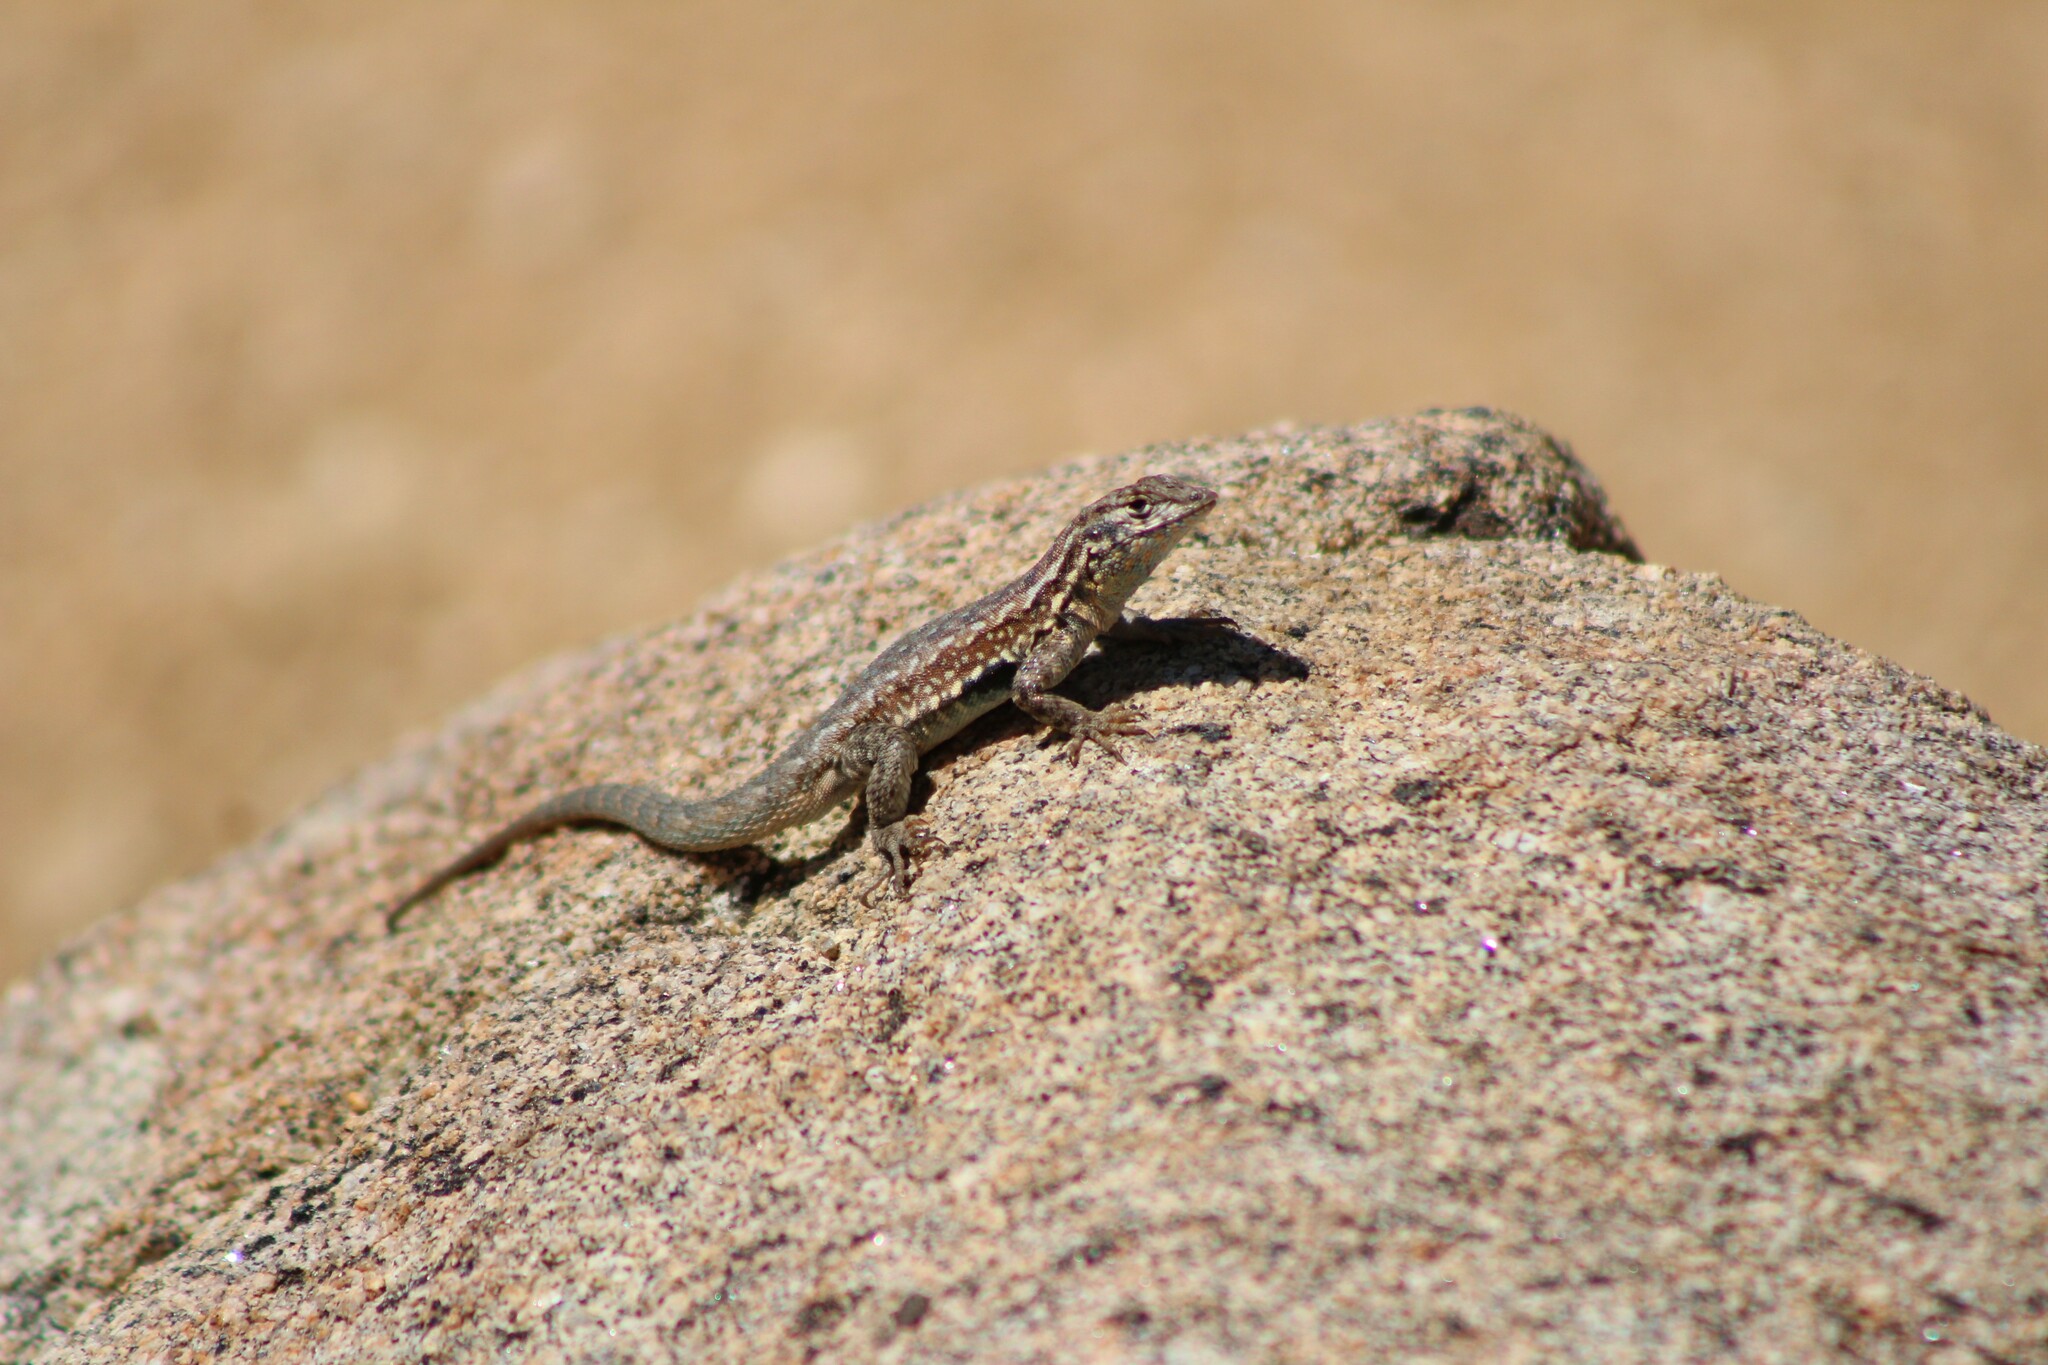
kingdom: Animalia
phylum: Chordata
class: Squamata
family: Phrynosomatidae
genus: Uta
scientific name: Uta stansburiana
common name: Side-blotched lizard
